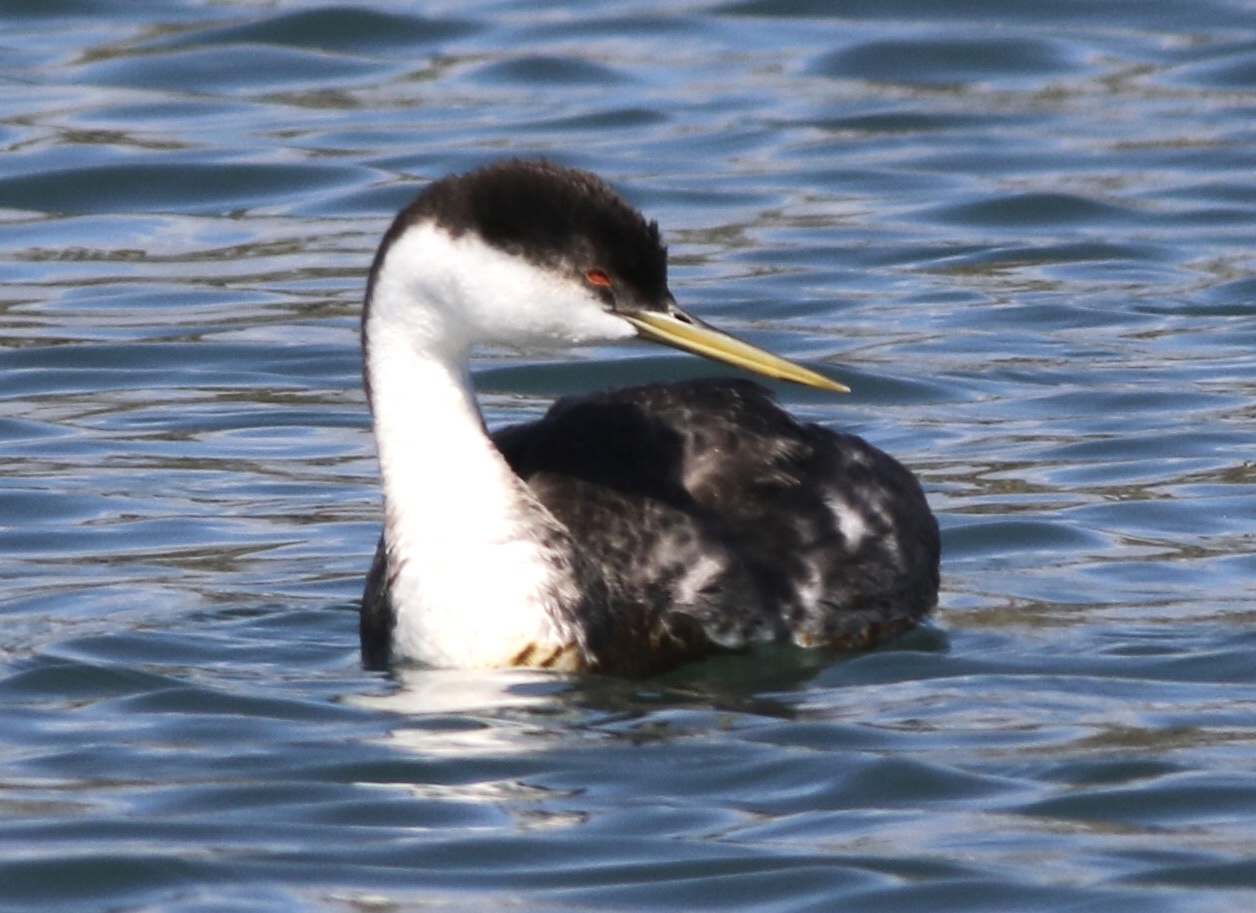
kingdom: Animalia
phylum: Chordata
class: Aves
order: Podicipediformes
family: Podicipedidae
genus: Aechmophorus
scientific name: Aechmophorus occidentalis
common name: Western grebe
